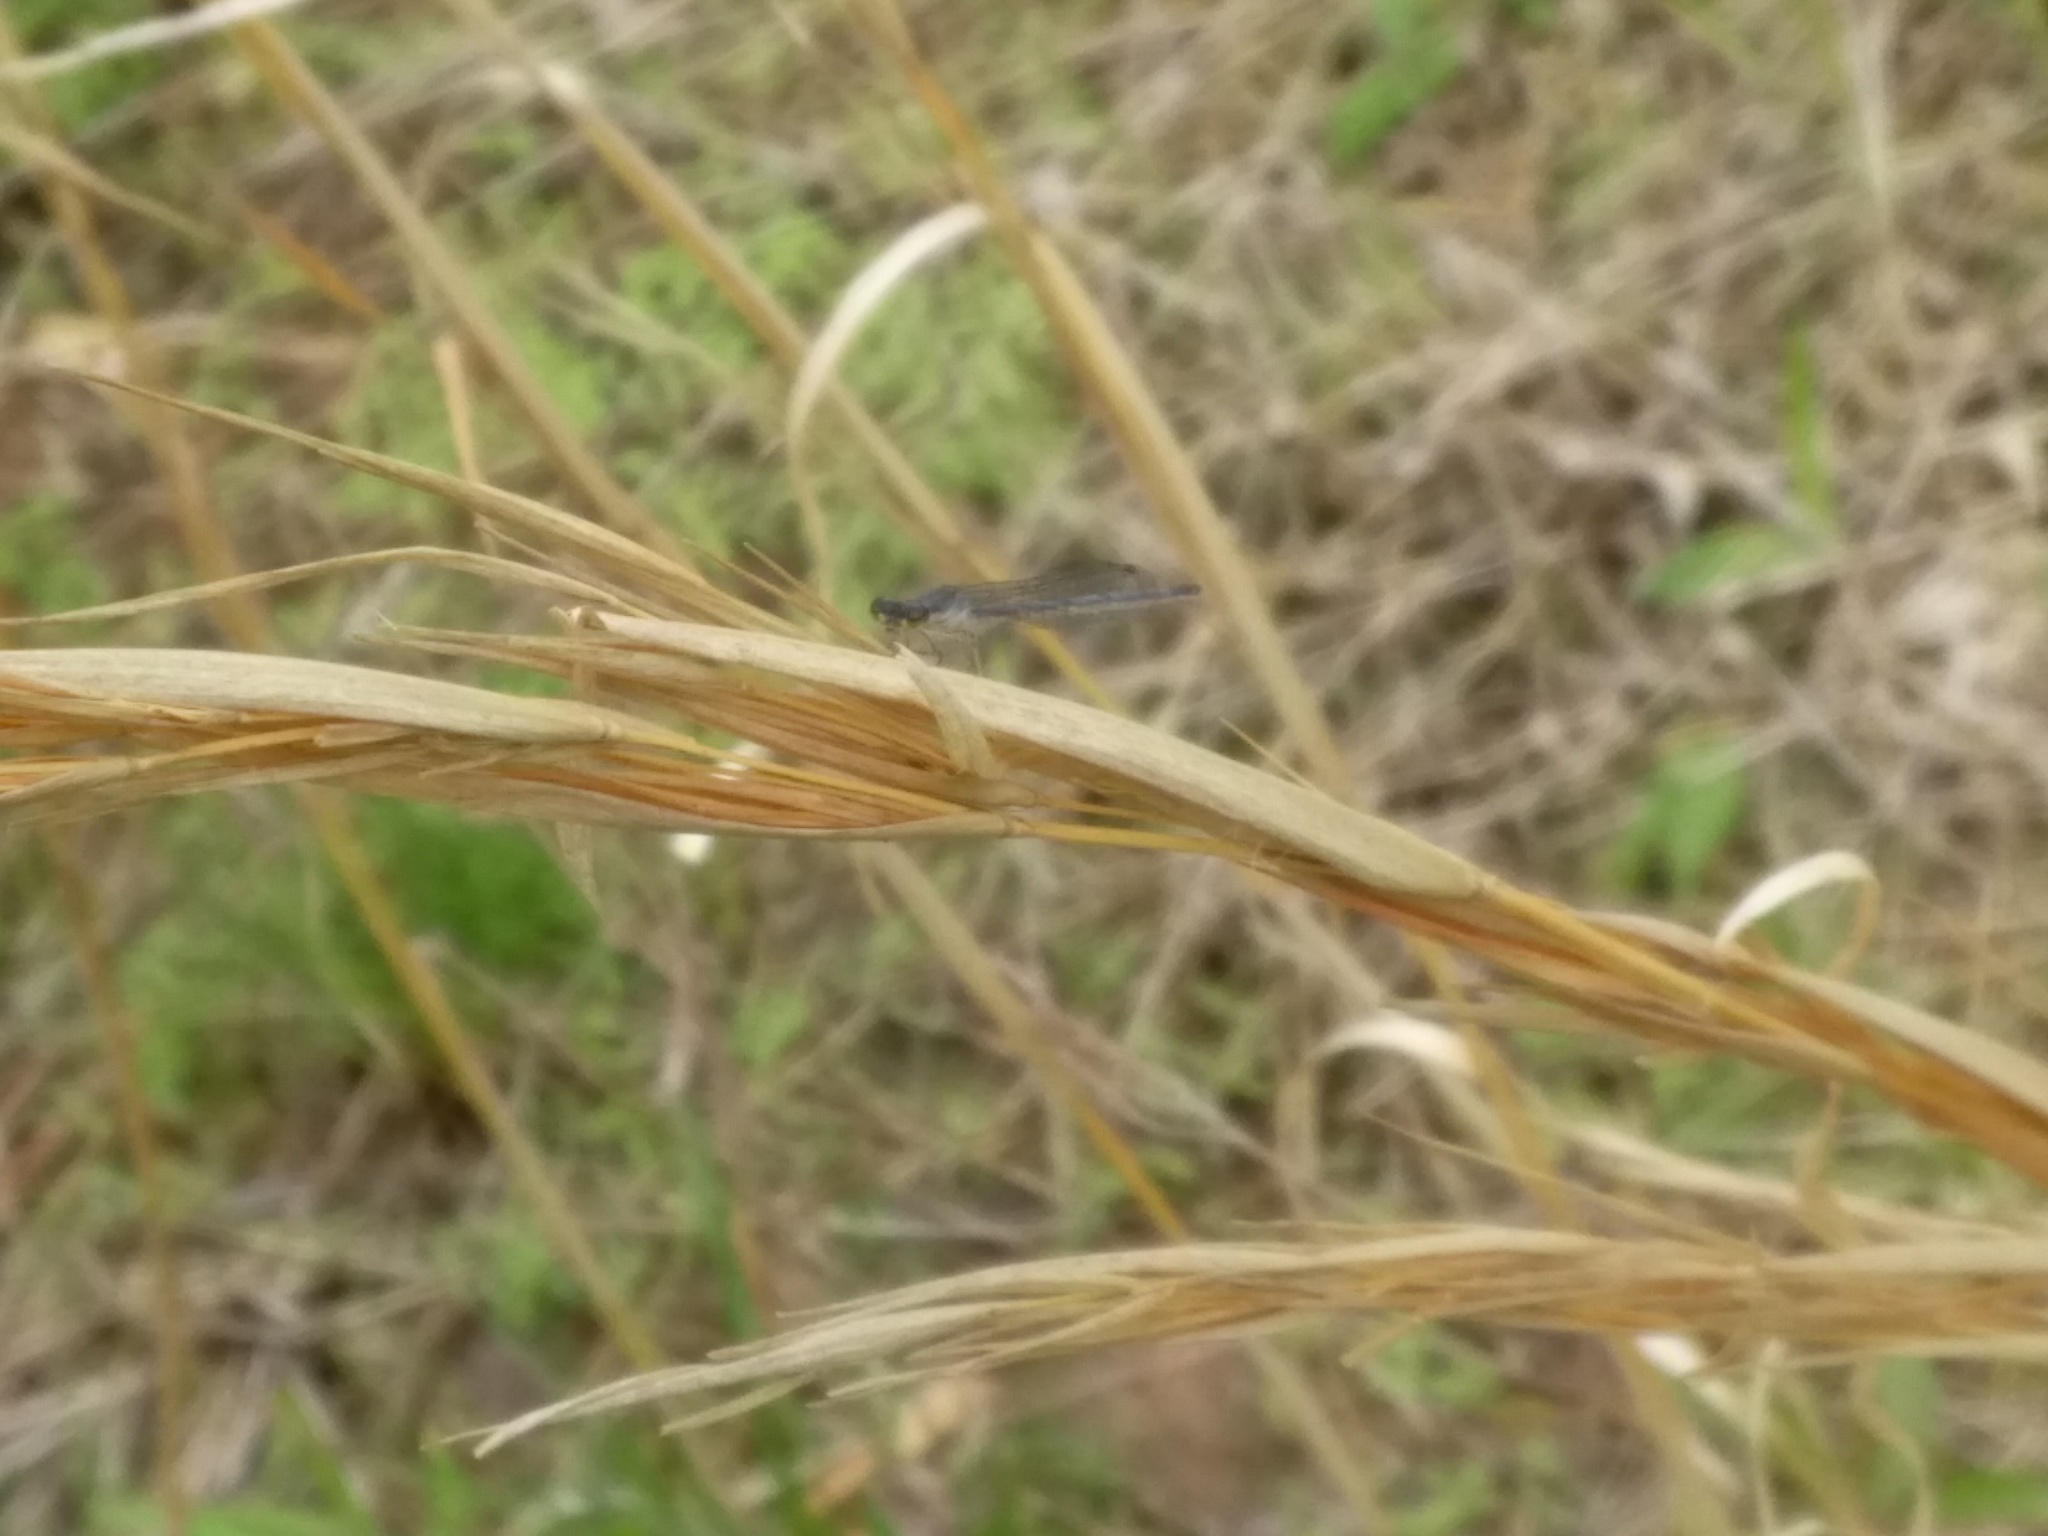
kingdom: Animalia
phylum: Arthropoda
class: Insecta
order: Odonata
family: Coenagrionidae
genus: Ischnura
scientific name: Ischnura posita
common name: Fragile forktail
